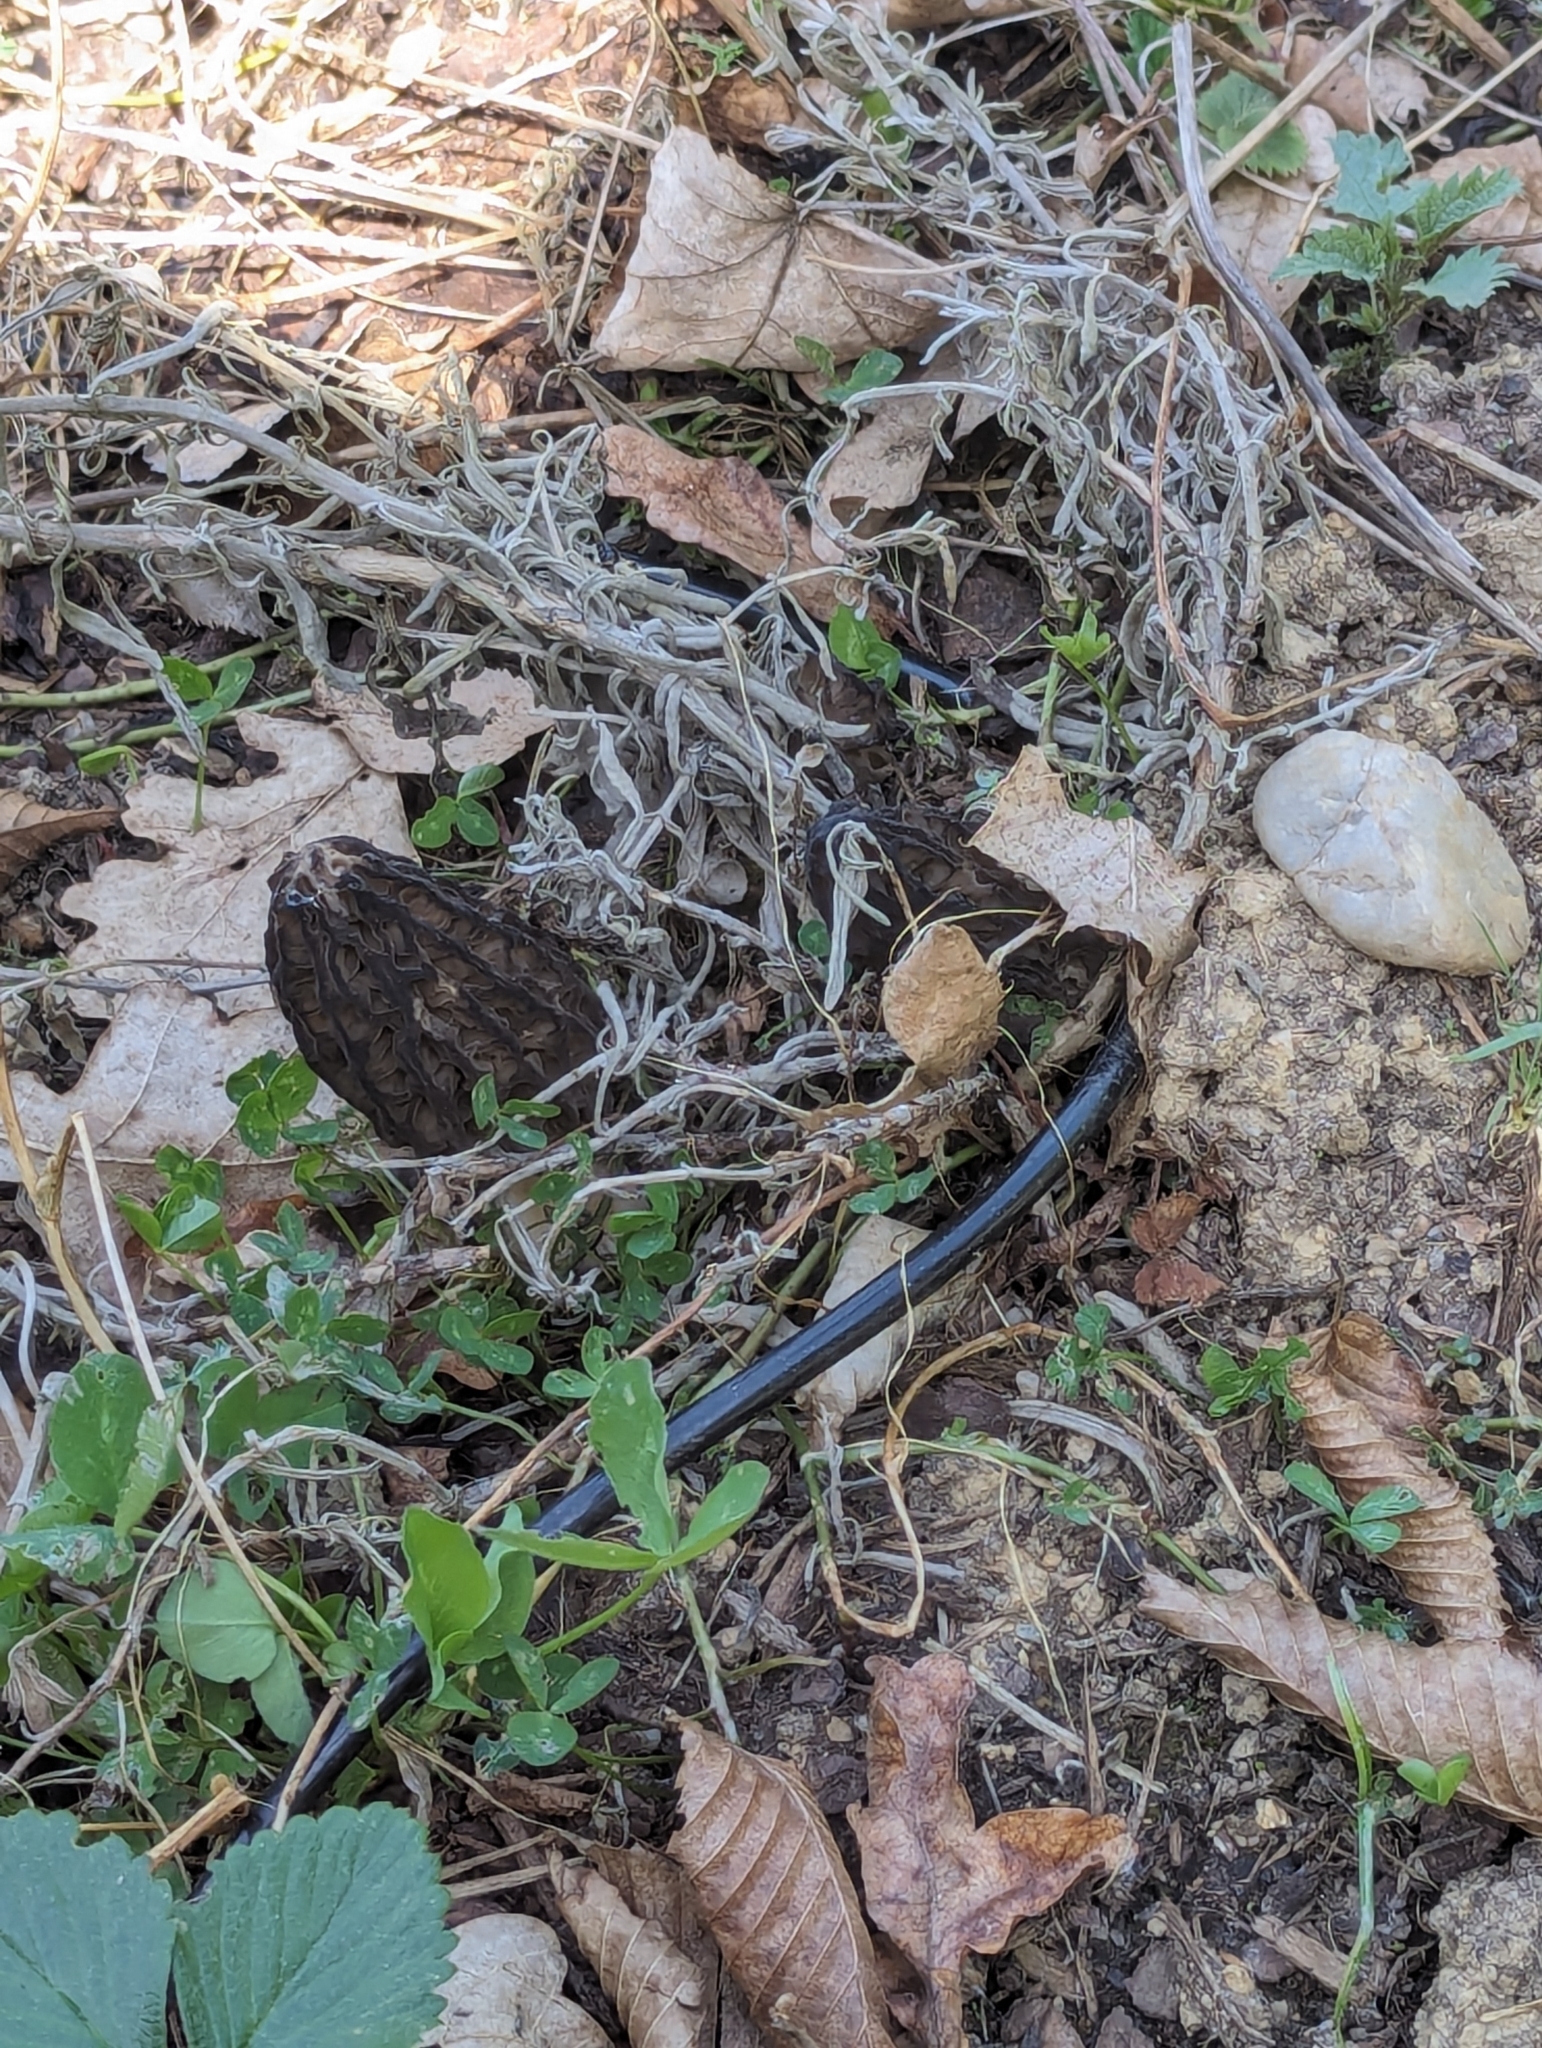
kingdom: Fungi
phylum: Ascomycota
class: Pezizomycetes
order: Pezizales
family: Morchellaceae
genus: Morchella
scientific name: Morchella elata
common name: Black morel
